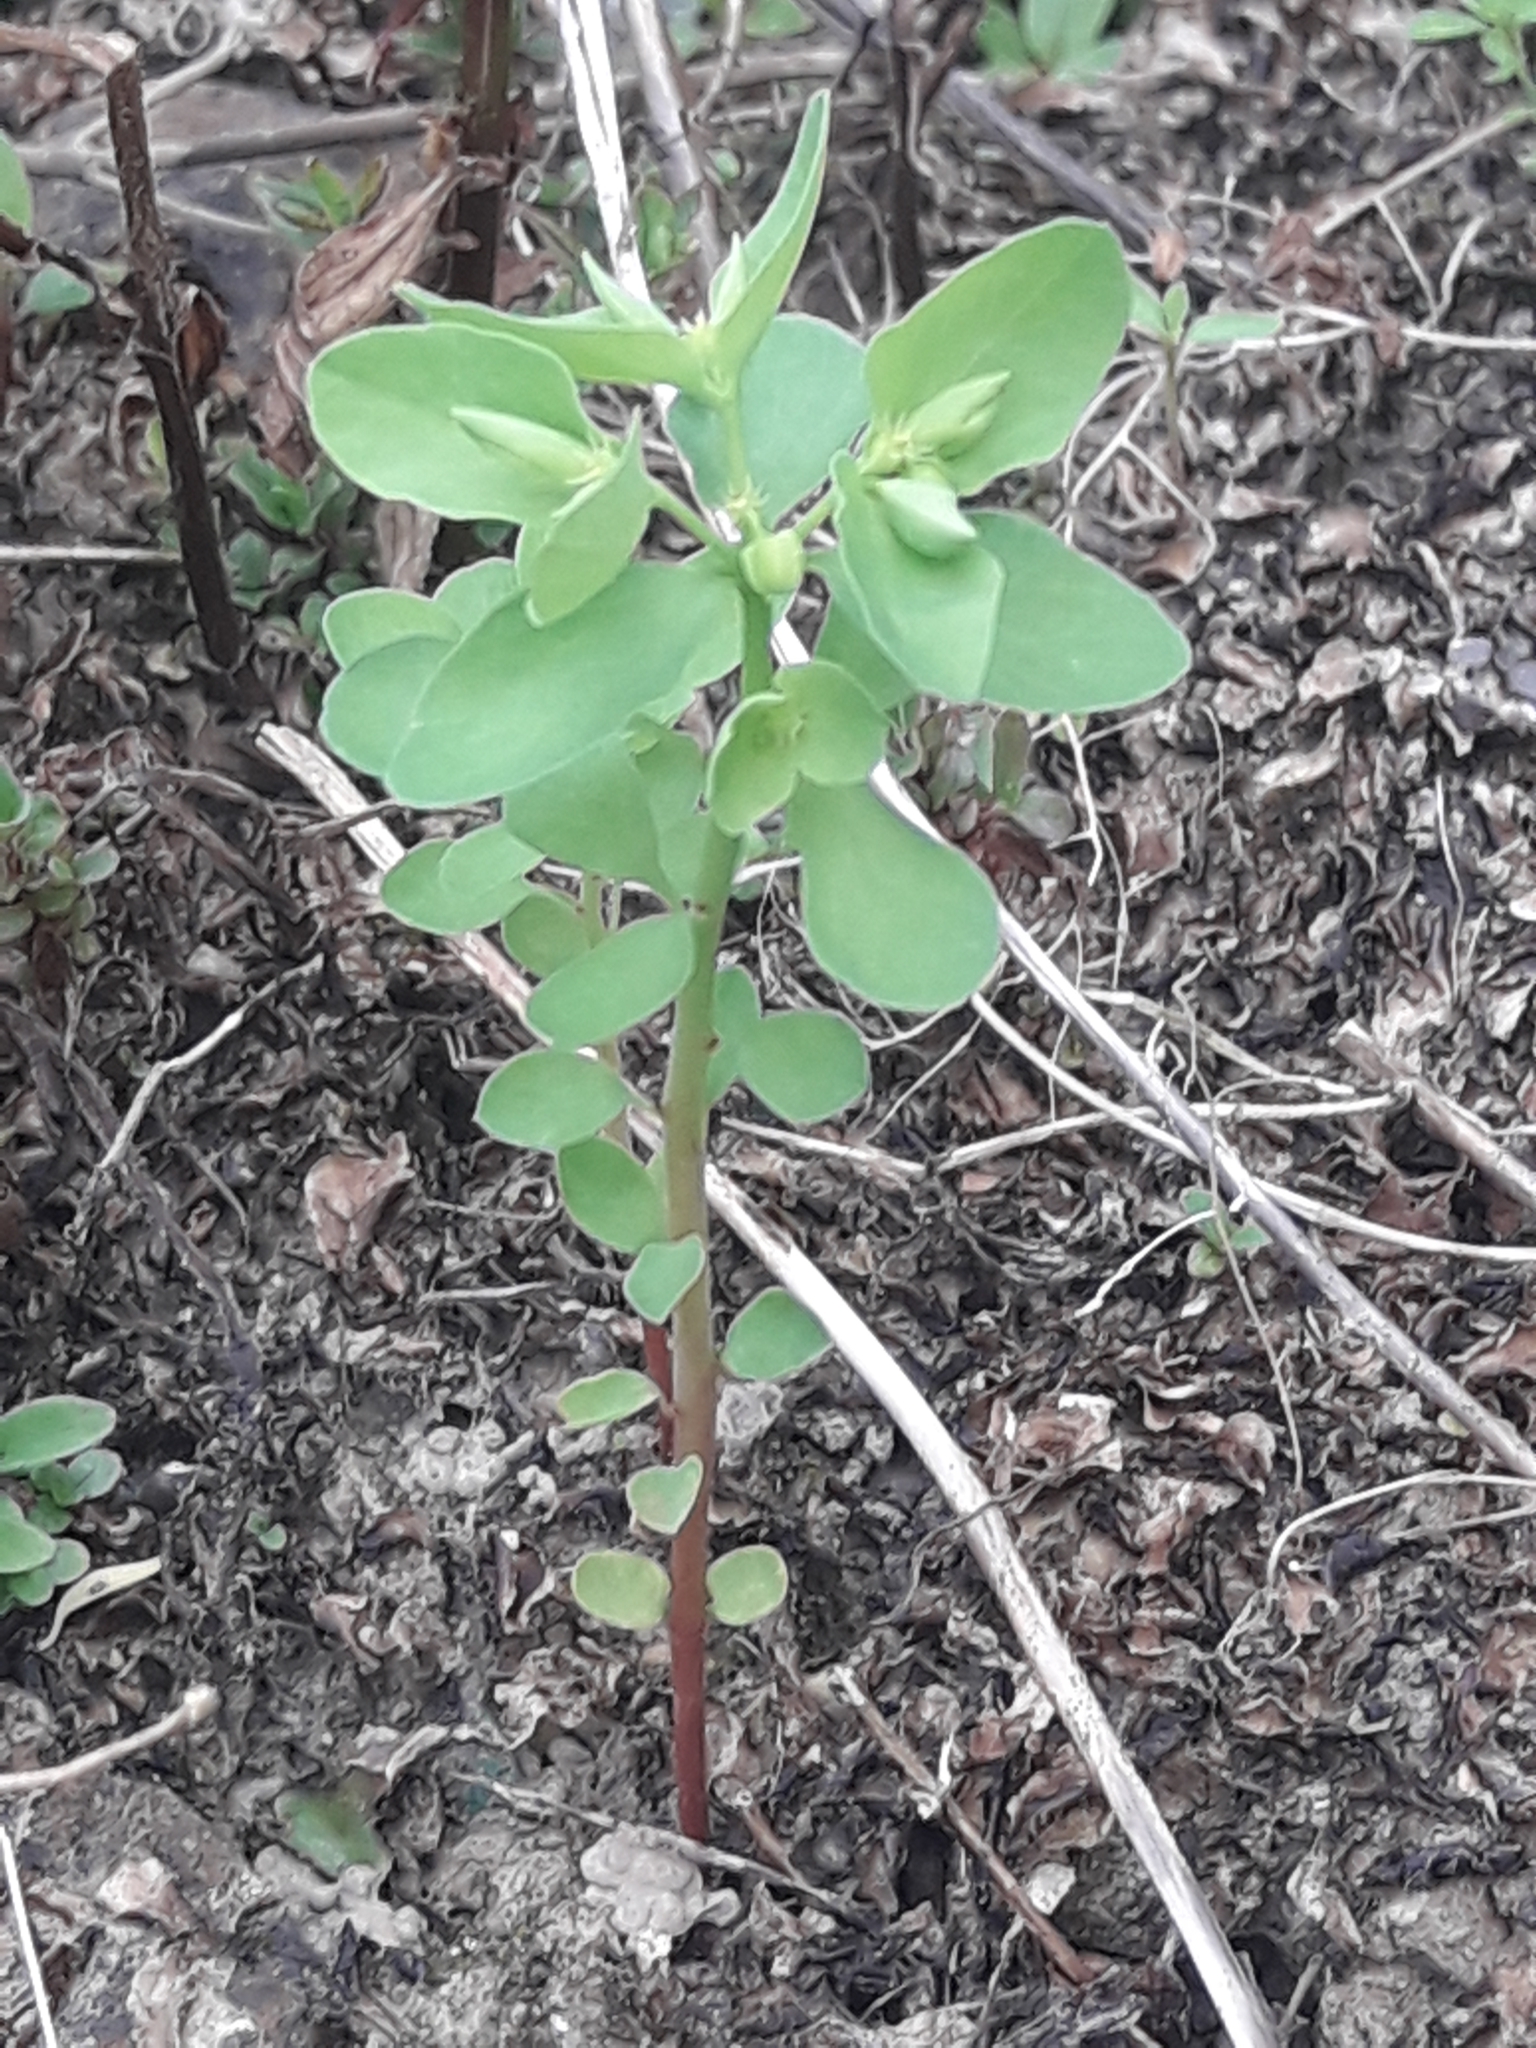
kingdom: Plantae
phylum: Tracheophyta
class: Magnoliopsida
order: Malpighiales
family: Euphorbiaceae
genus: Euphorbia
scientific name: Euphorbia peplus
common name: Petty spurge
